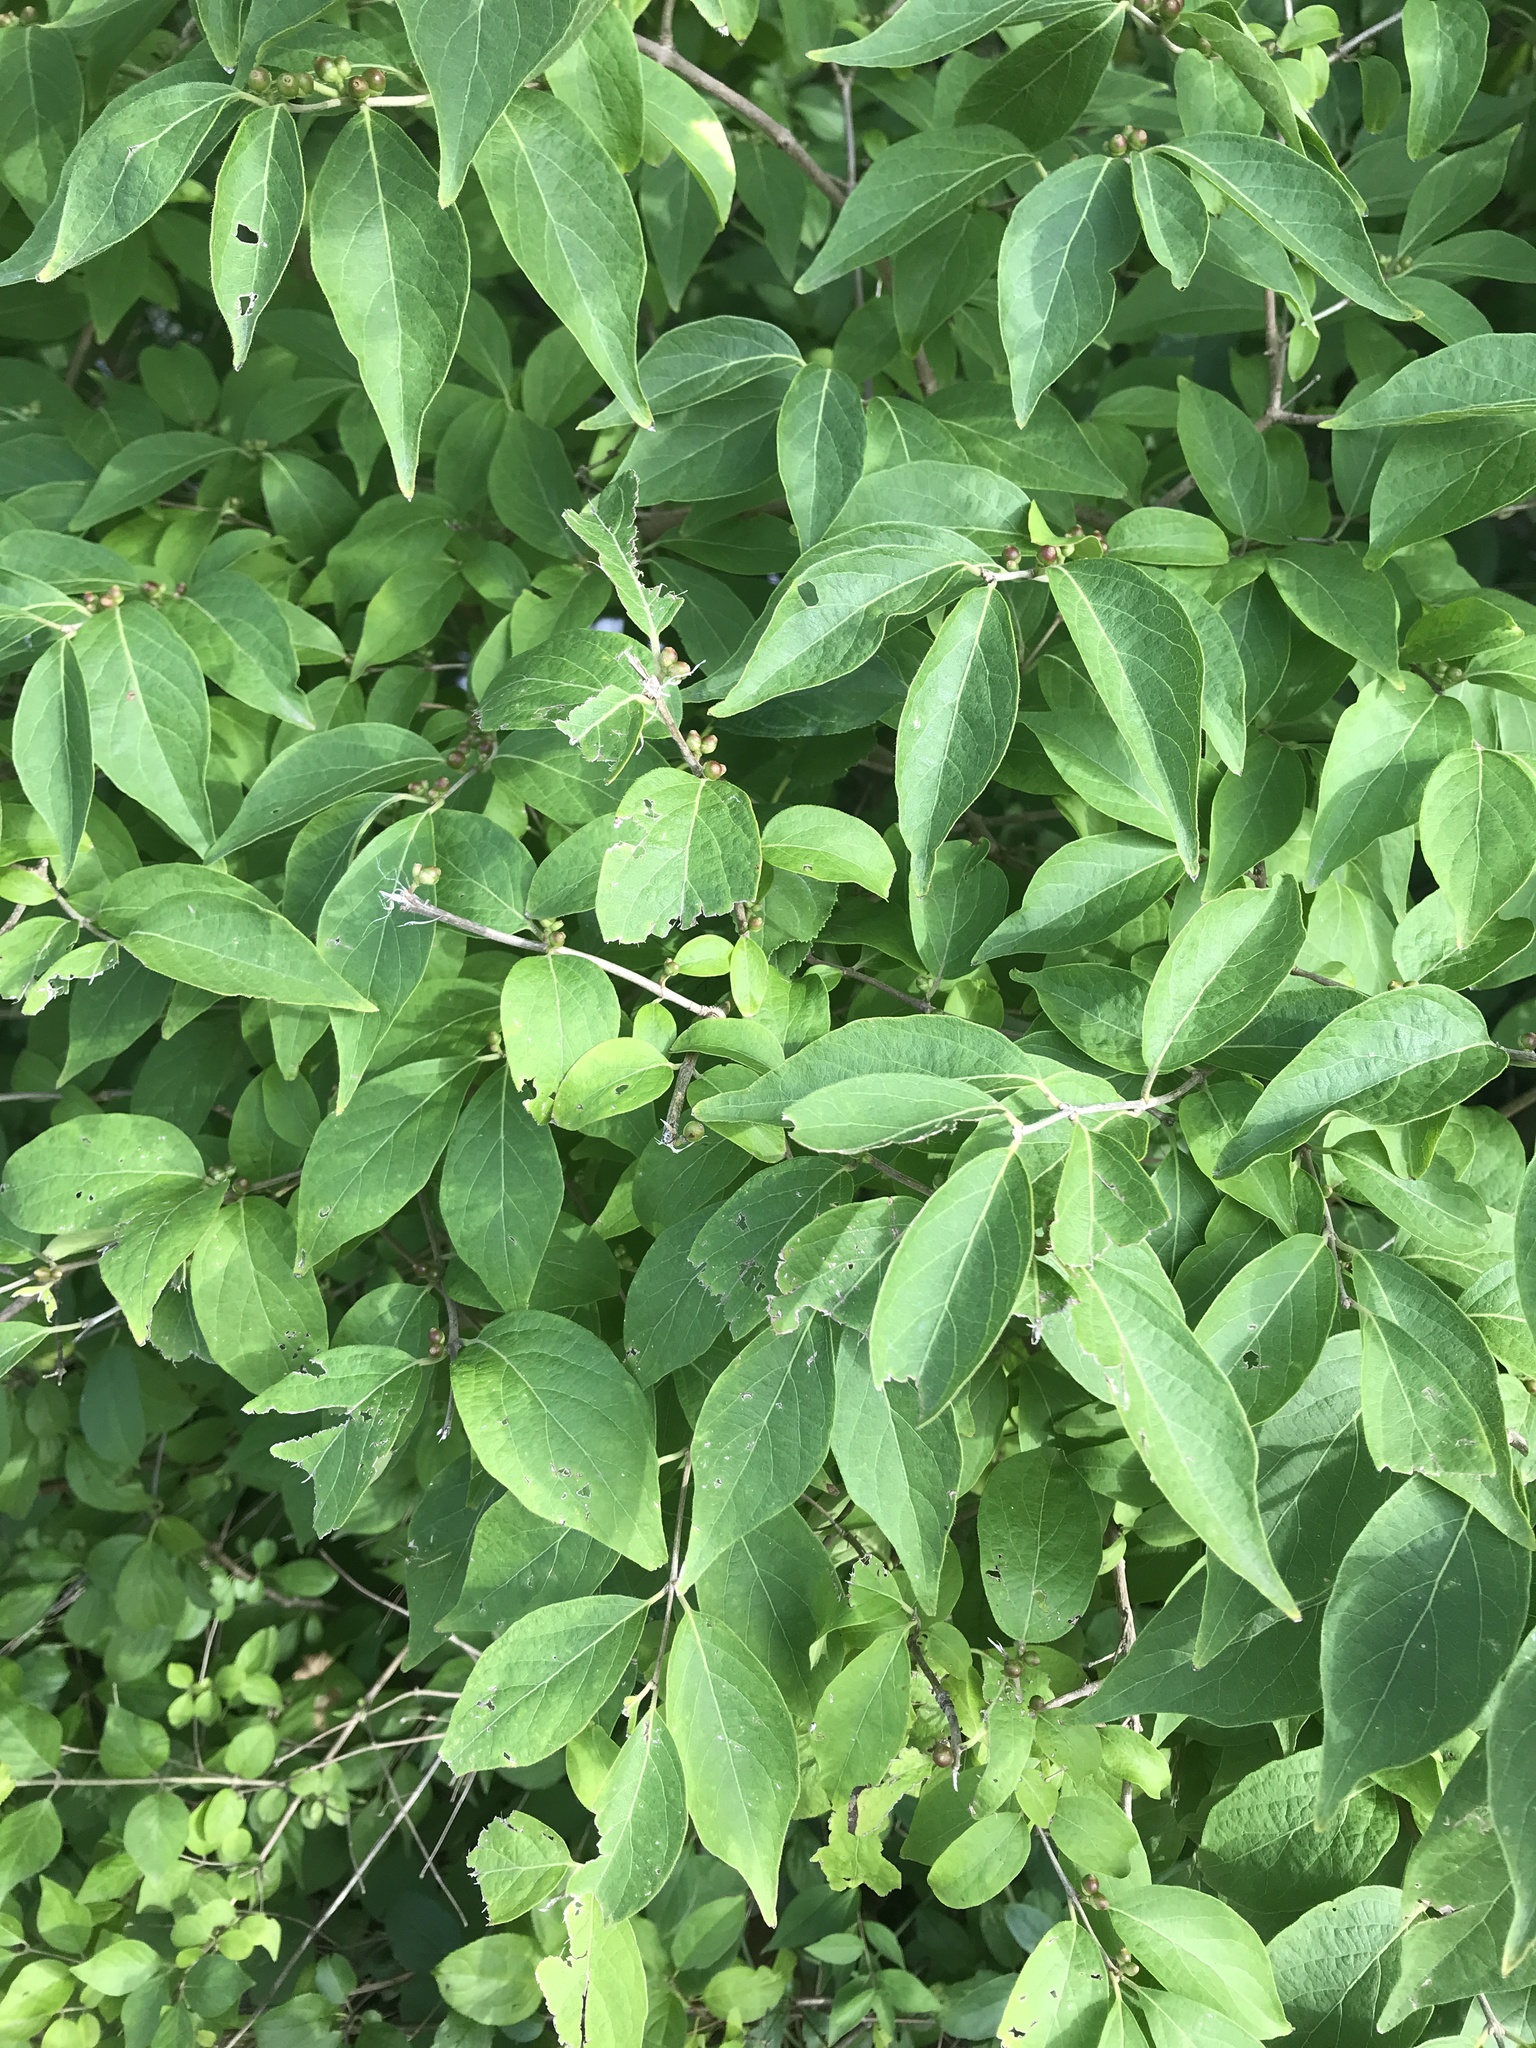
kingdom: Plantae
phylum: Tracheophyta
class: Magnoliopsida
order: Dipsacales
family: Caprifoliaceae
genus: Lonicera
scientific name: Lonicera maackii
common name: Amur honeysuckle
